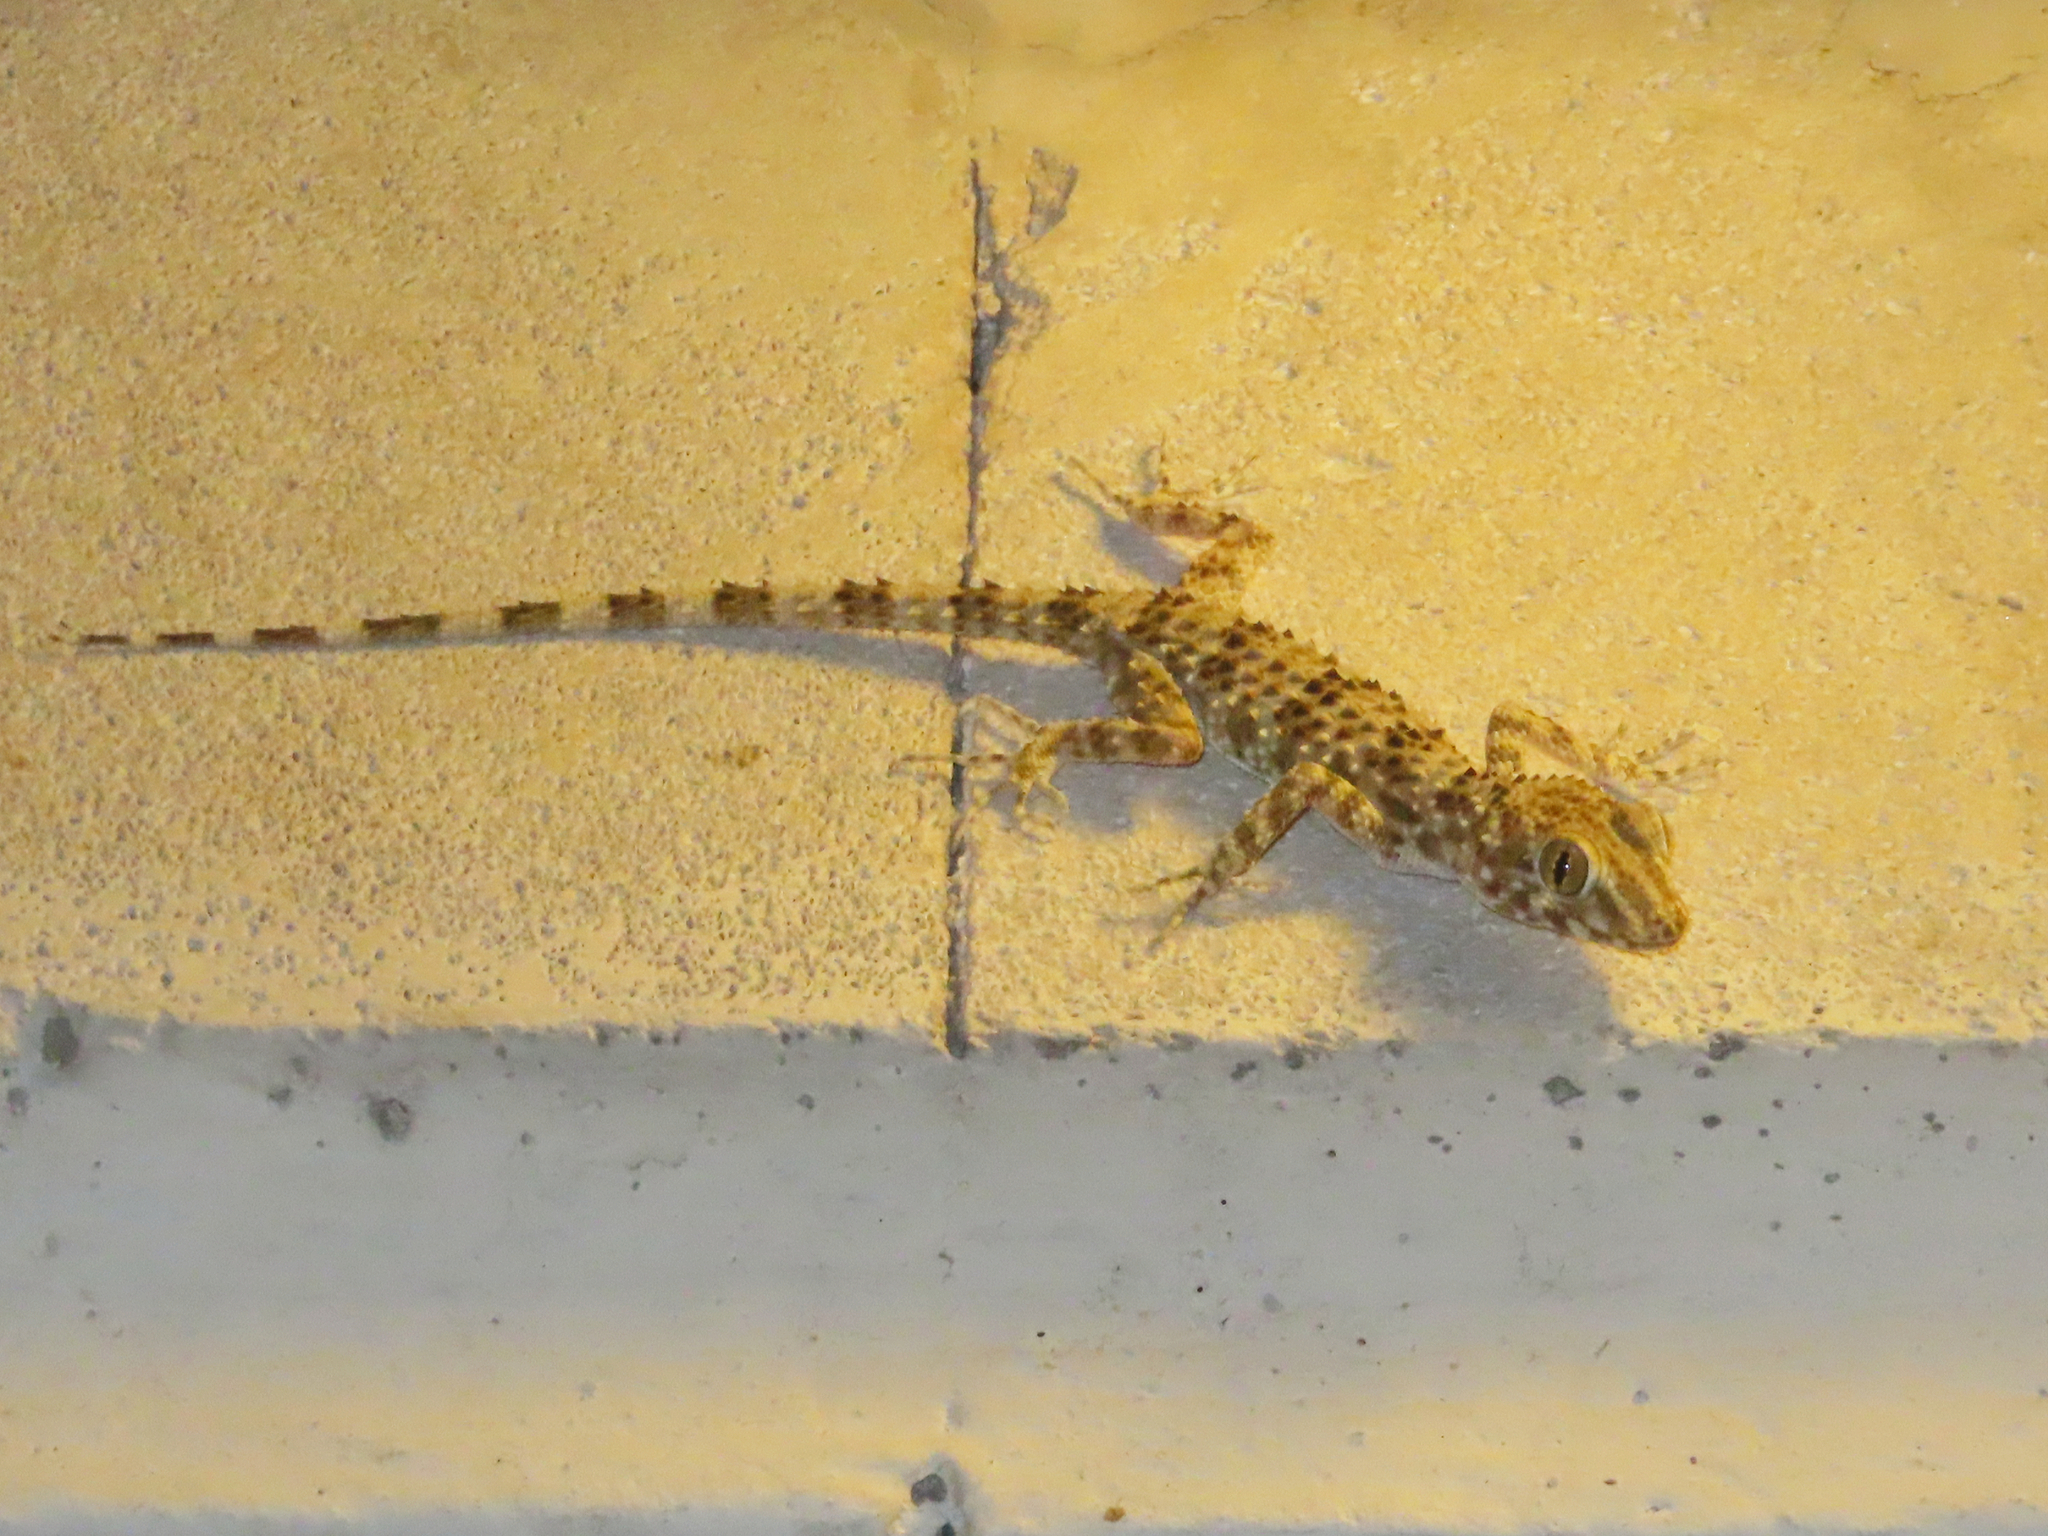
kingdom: Animalia
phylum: Chordata
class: Squamata
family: Gekkonidae
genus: Tenuidactylus
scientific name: Tenuidactylus caspius
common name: Caspian bent-toed gecko
